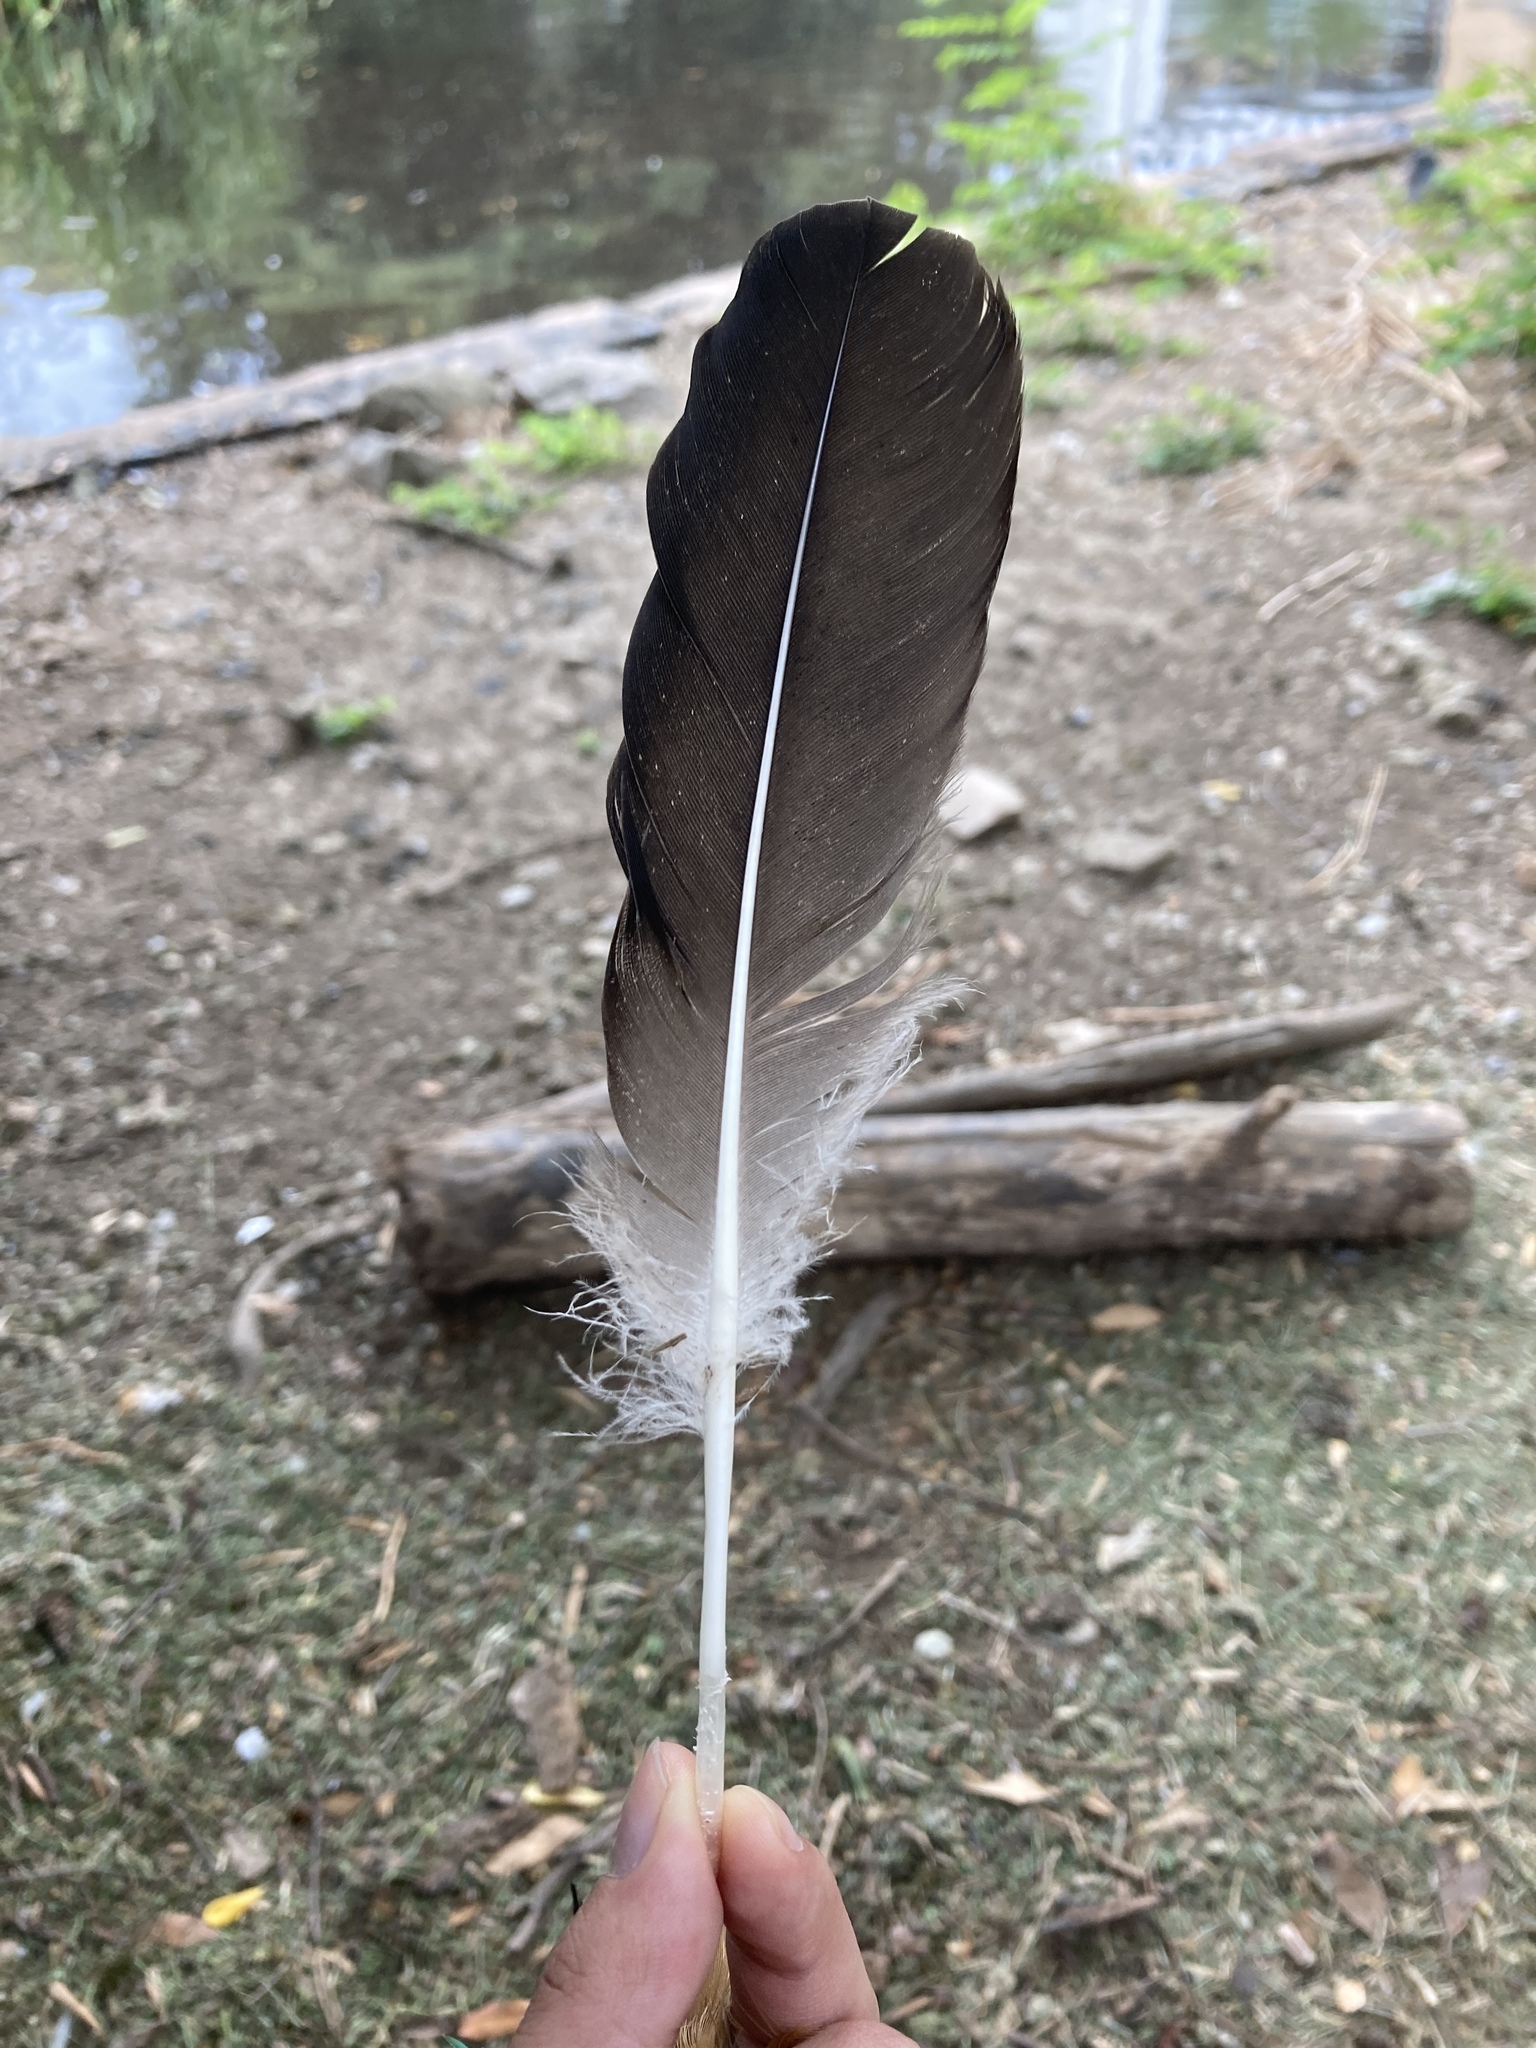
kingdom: Animalia
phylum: Chordata
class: Aves
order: Anseriformes
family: Anatidae
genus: Anser
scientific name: Anser anser
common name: Greylag goose
